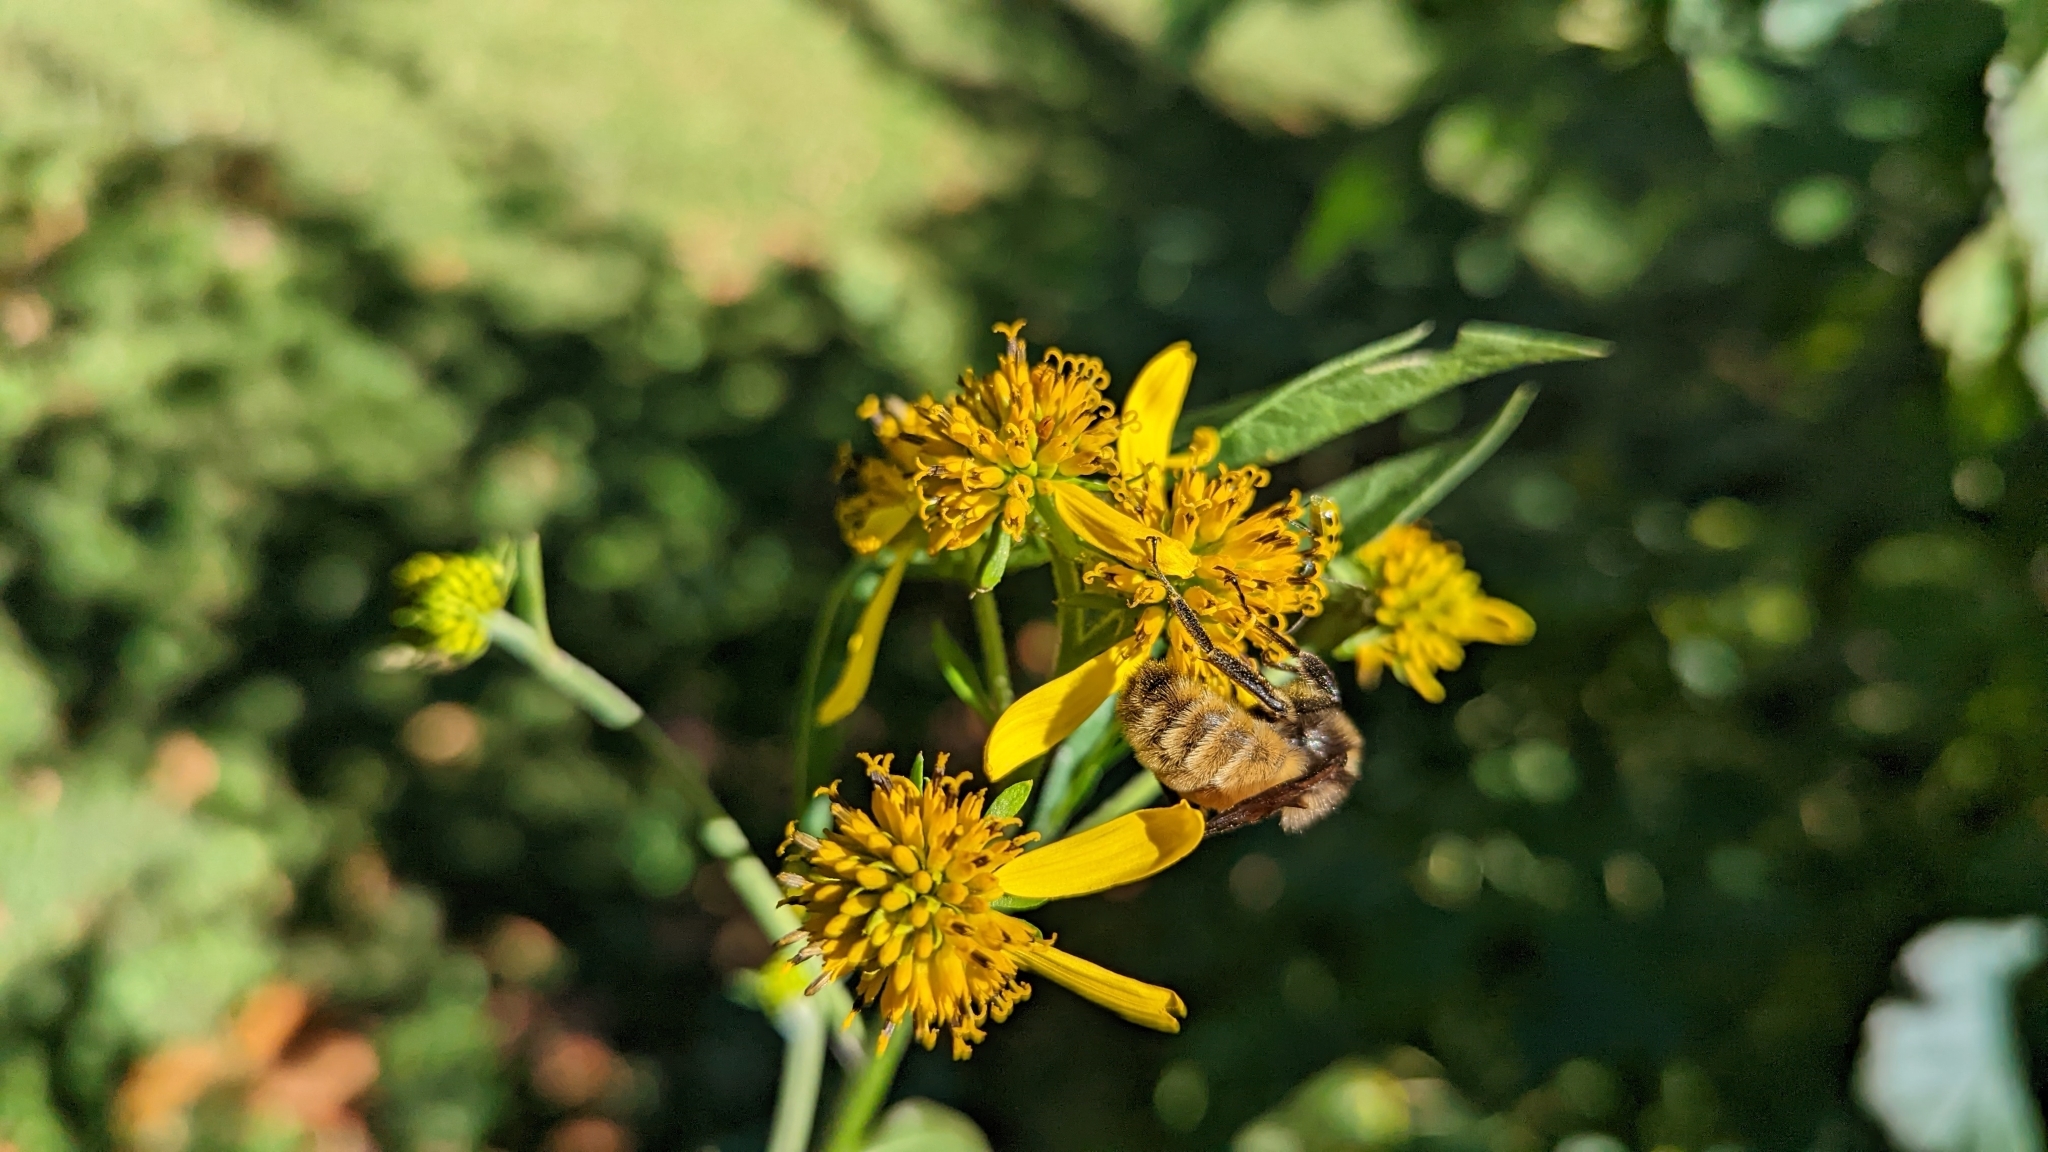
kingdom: Animalia
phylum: Arthropoda
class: Insecta
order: Hymenoptera
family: Apidae
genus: Bombus
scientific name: Bombus pensylvanicus
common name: Bumble bee
